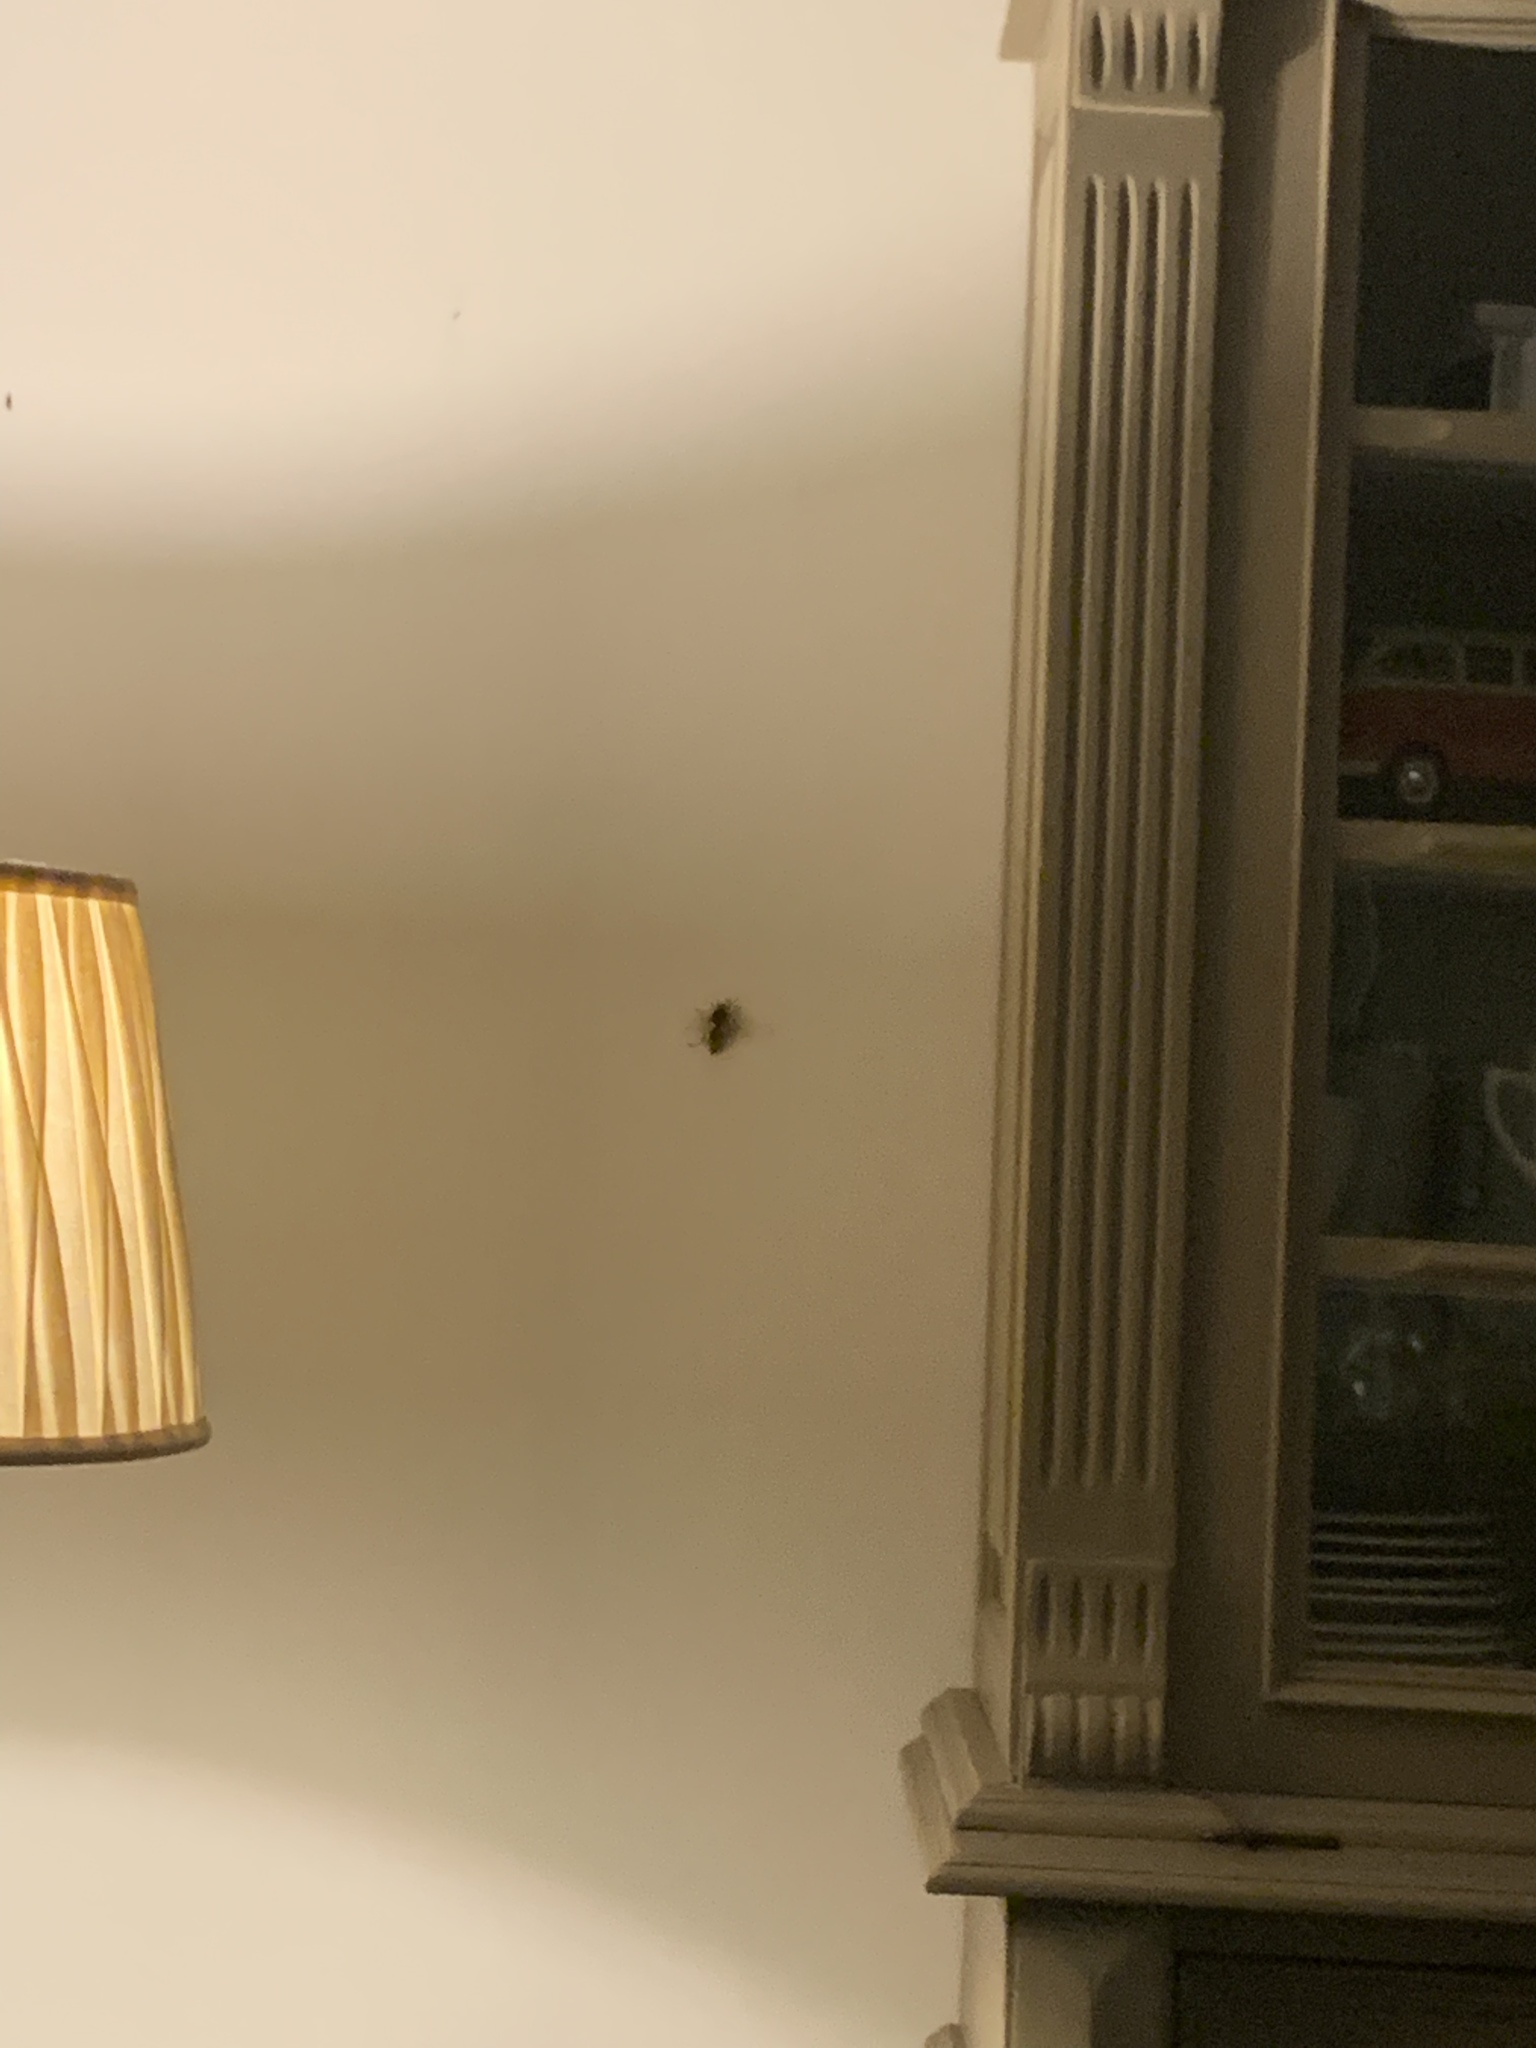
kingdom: Animalia
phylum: Arthropoda
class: Insecta
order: Hymenoptera
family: Vespidae
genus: Vespa
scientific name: Vespa crabro
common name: Hornet
